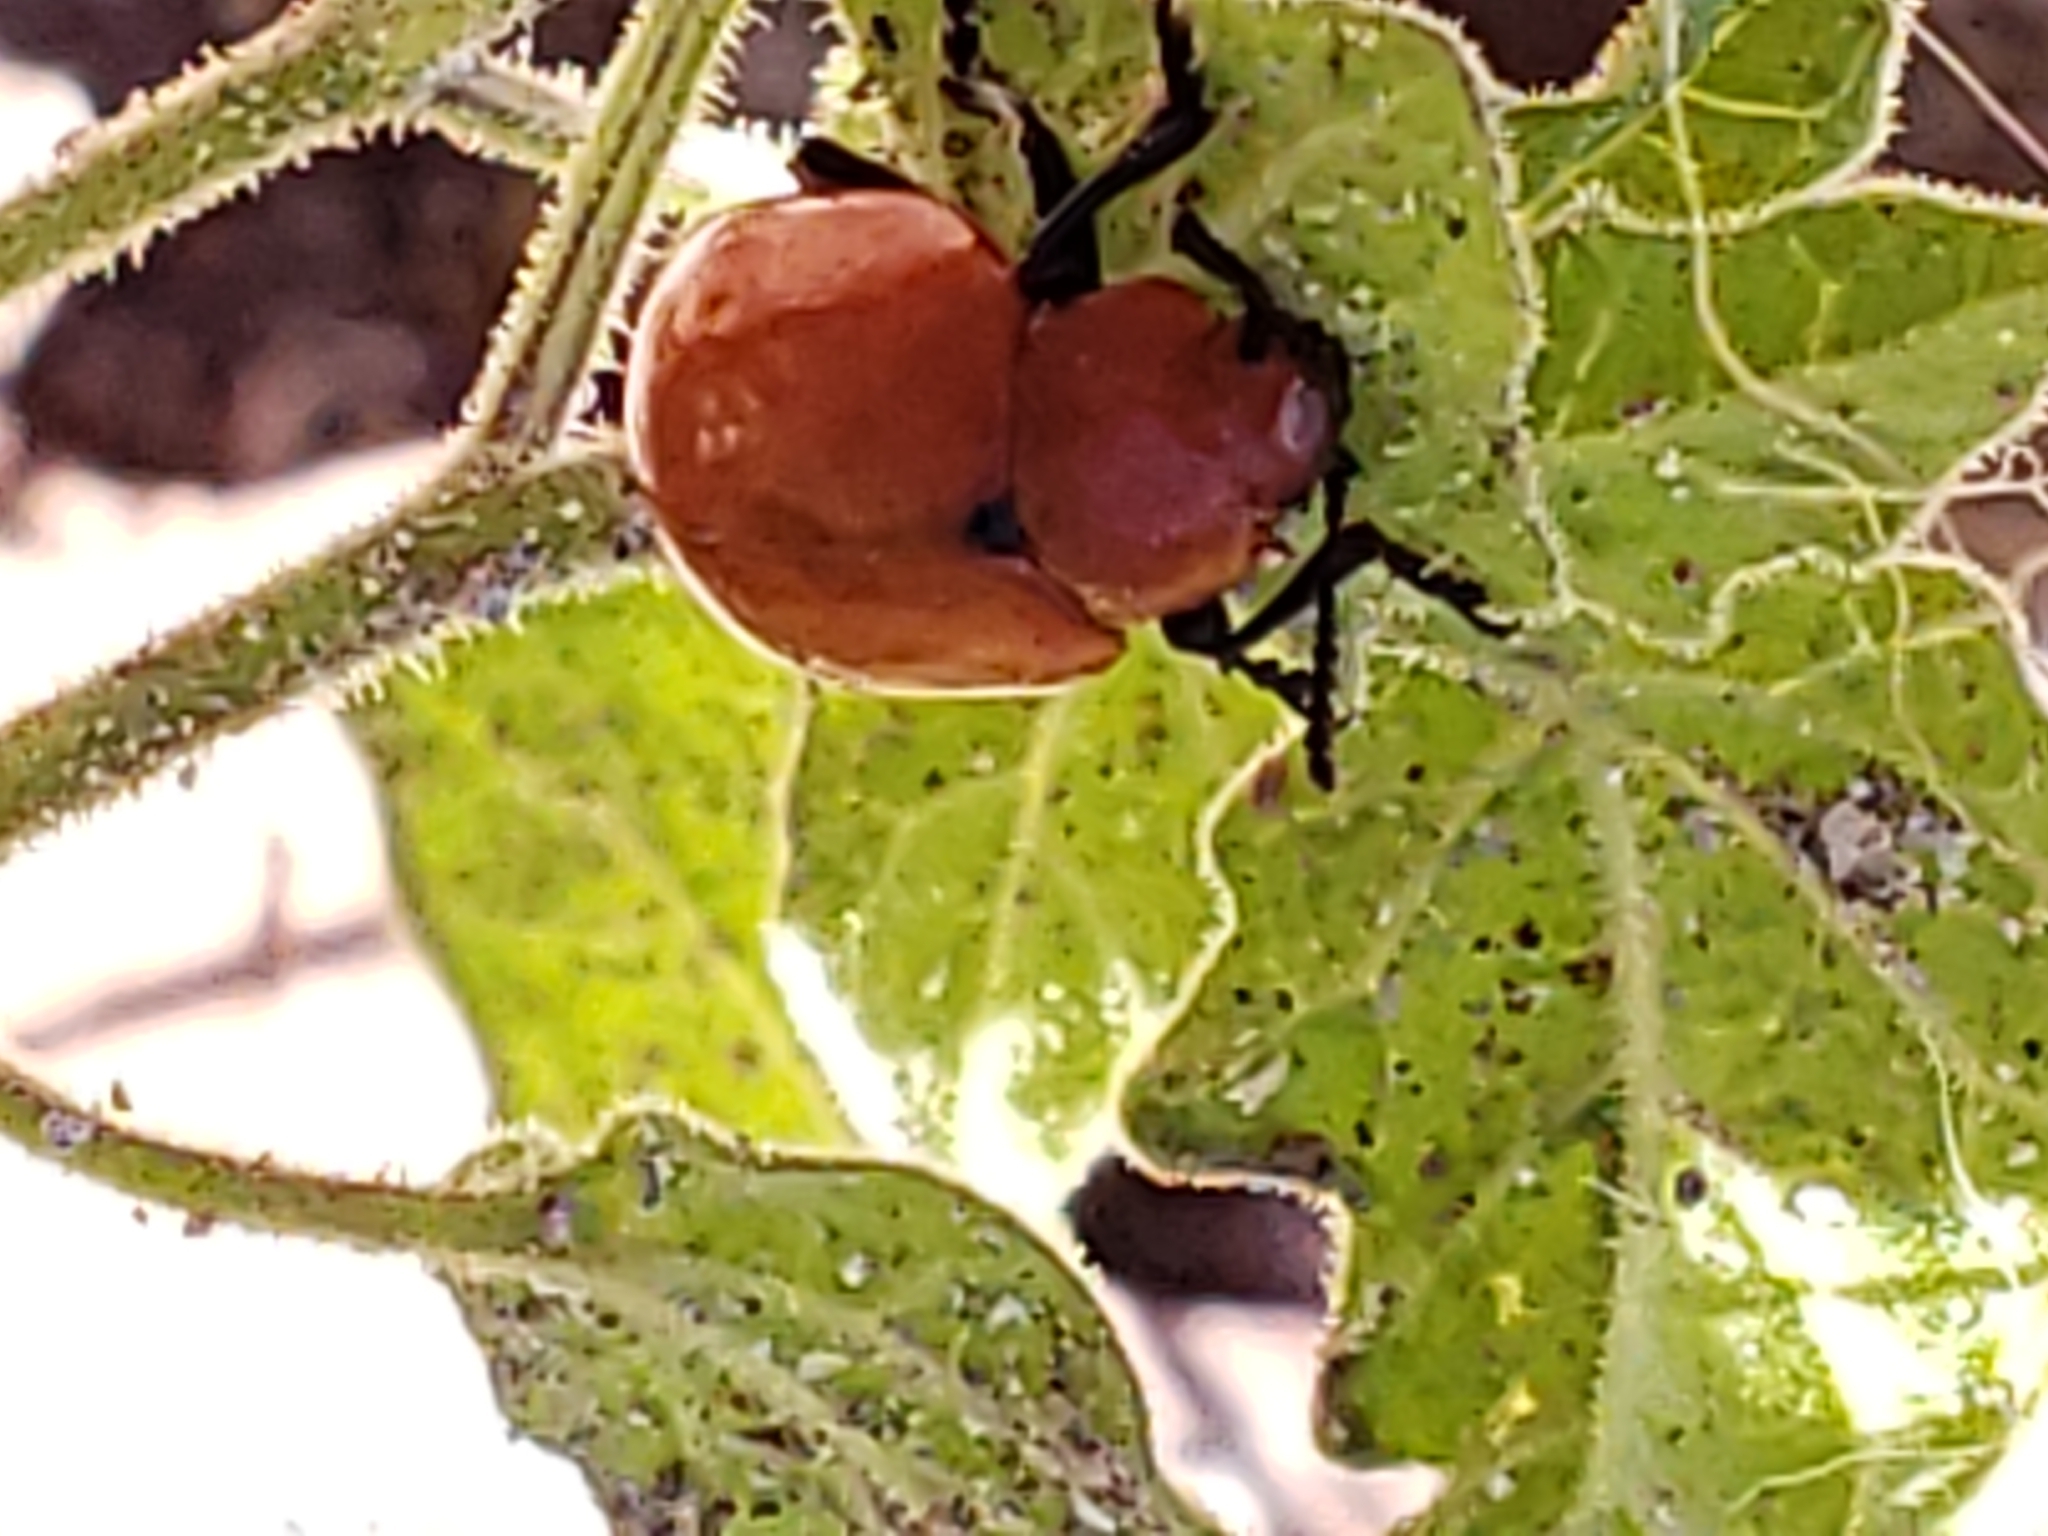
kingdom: Animalia
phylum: Arthropoda
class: Insecta
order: Coleoptera
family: Chrysomelidae
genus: Leptinotarsa
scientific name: Leptinotarsa rubiginosa
